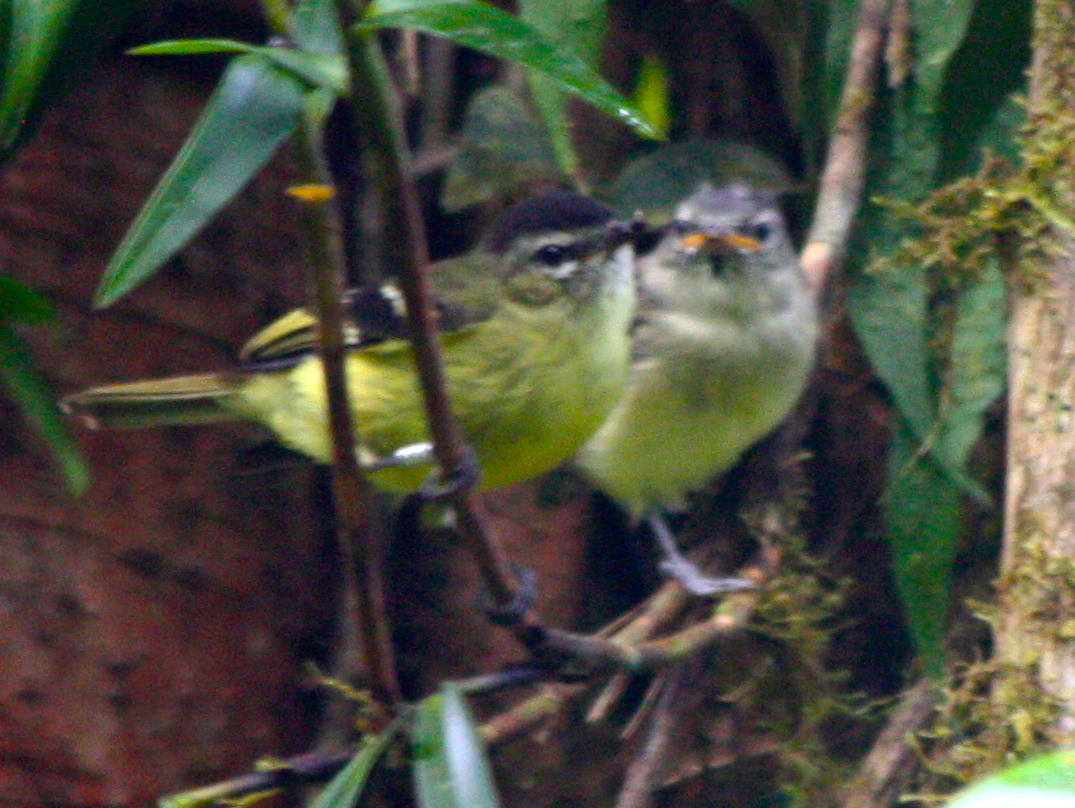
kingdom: Animalia
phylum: Chordata
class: Aves
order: Passeriformes
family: Tyrannidae
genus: Phyllomyias
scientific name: Phyllomyias nigrocapillus
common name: Black-capped tyrannulet
